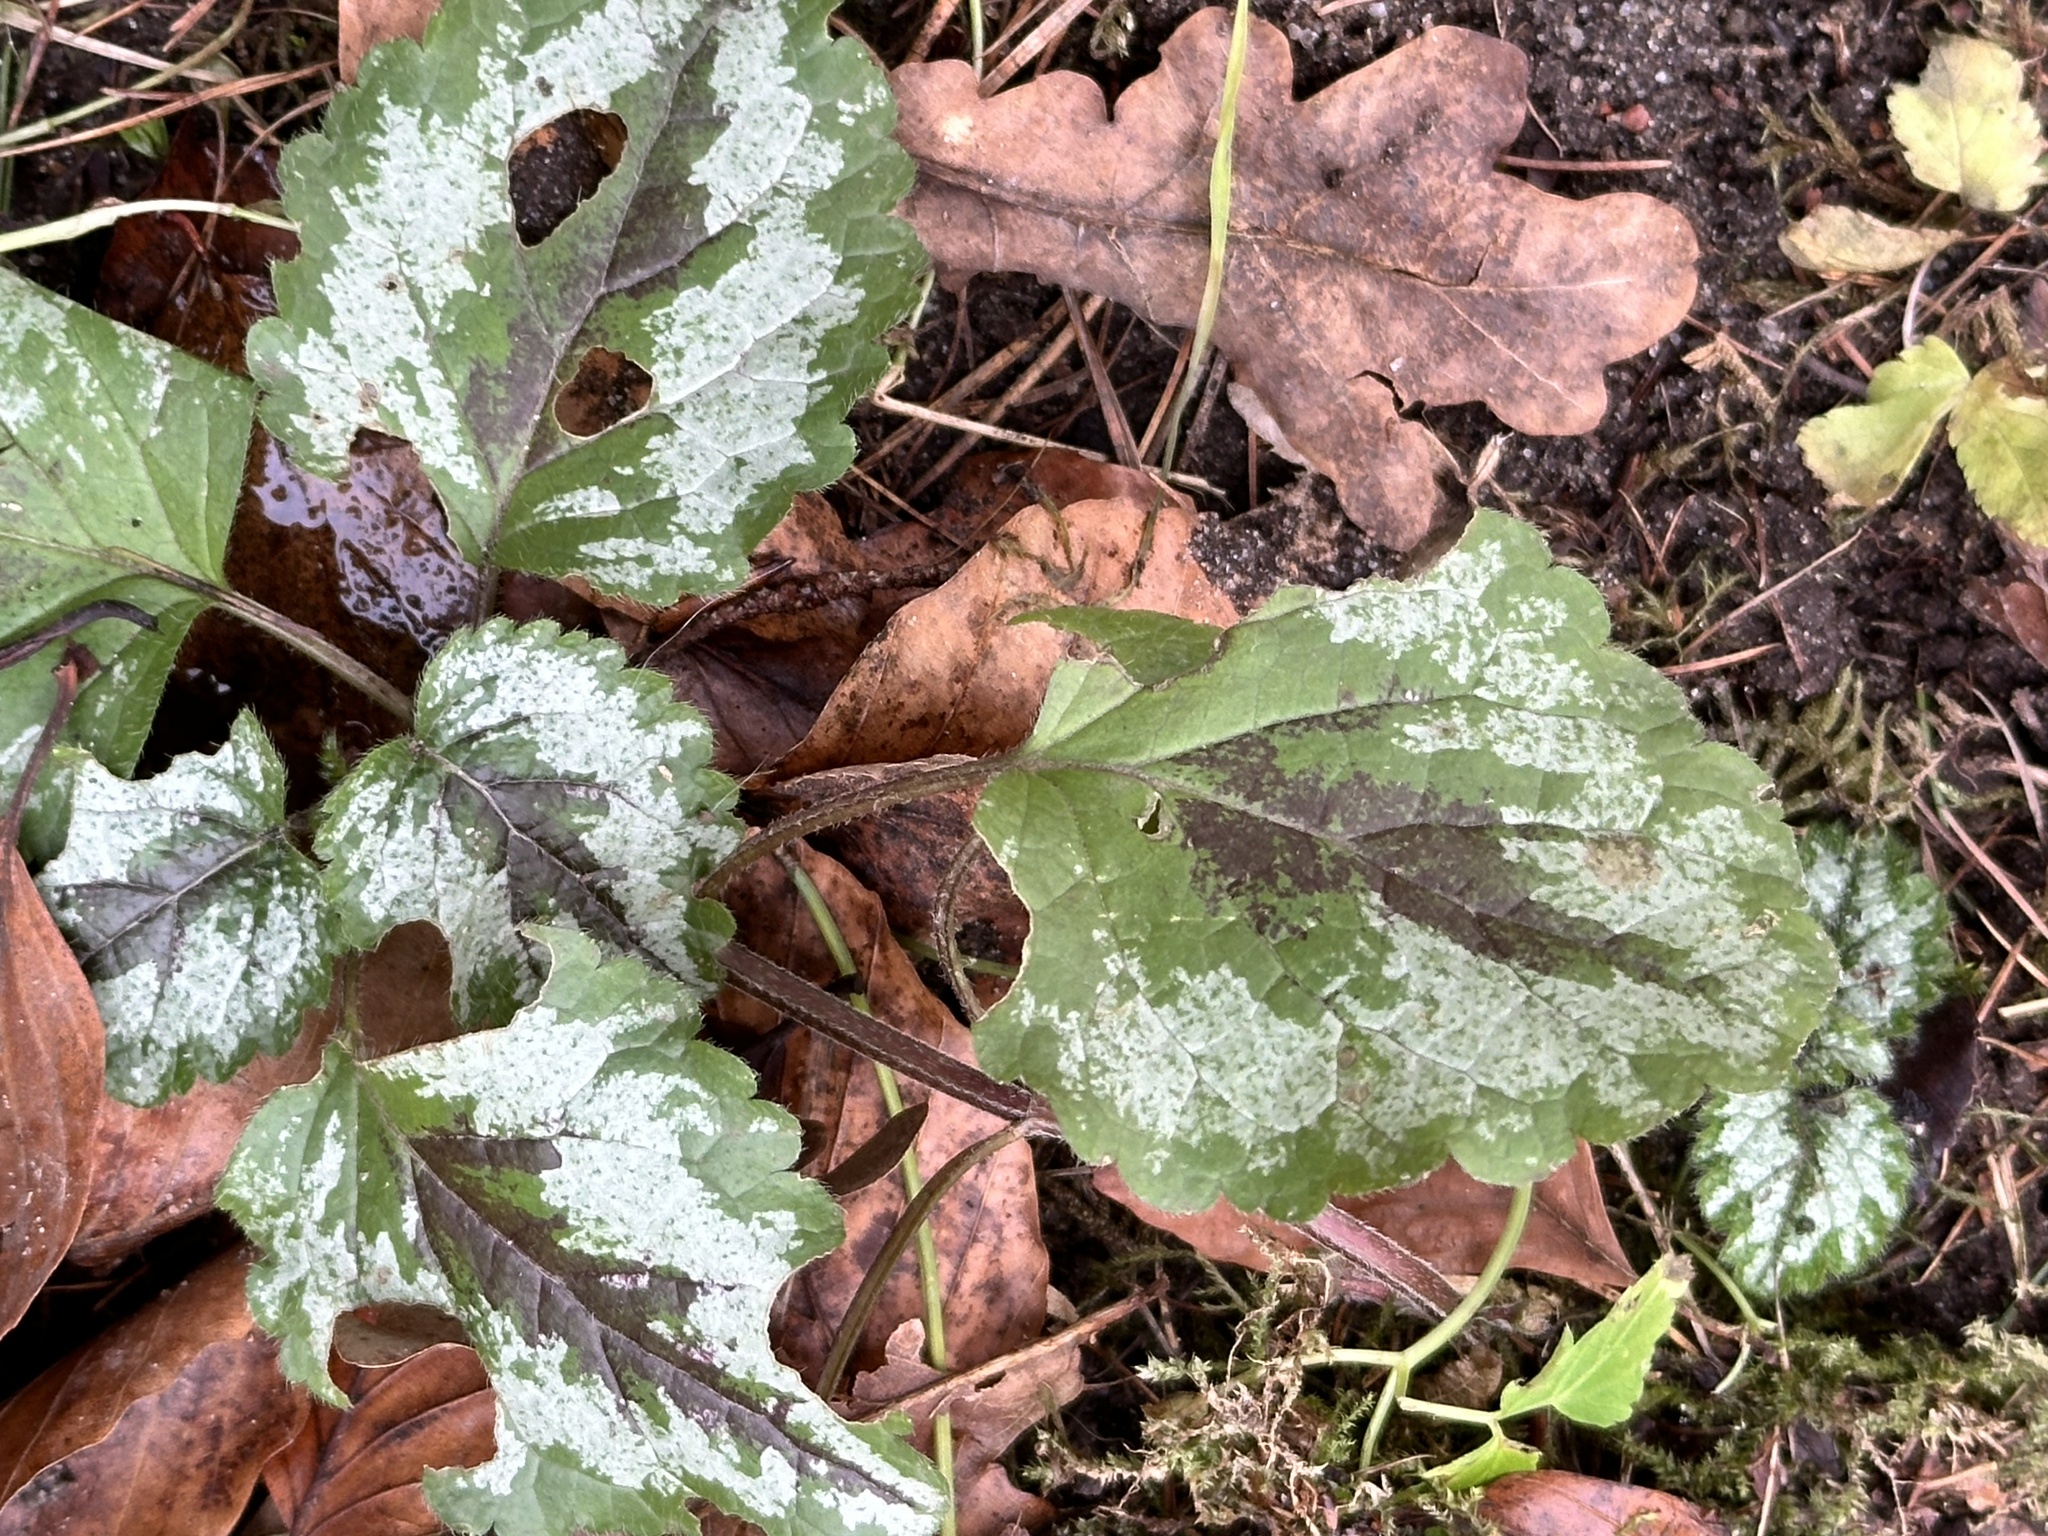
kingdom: Plantae
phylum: Tracheophyta
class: Magnoliopsida
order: Lamiales
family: Lamiaceae
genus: Lamium
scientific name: Lamium galeobdolon
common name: Yellow archangel
